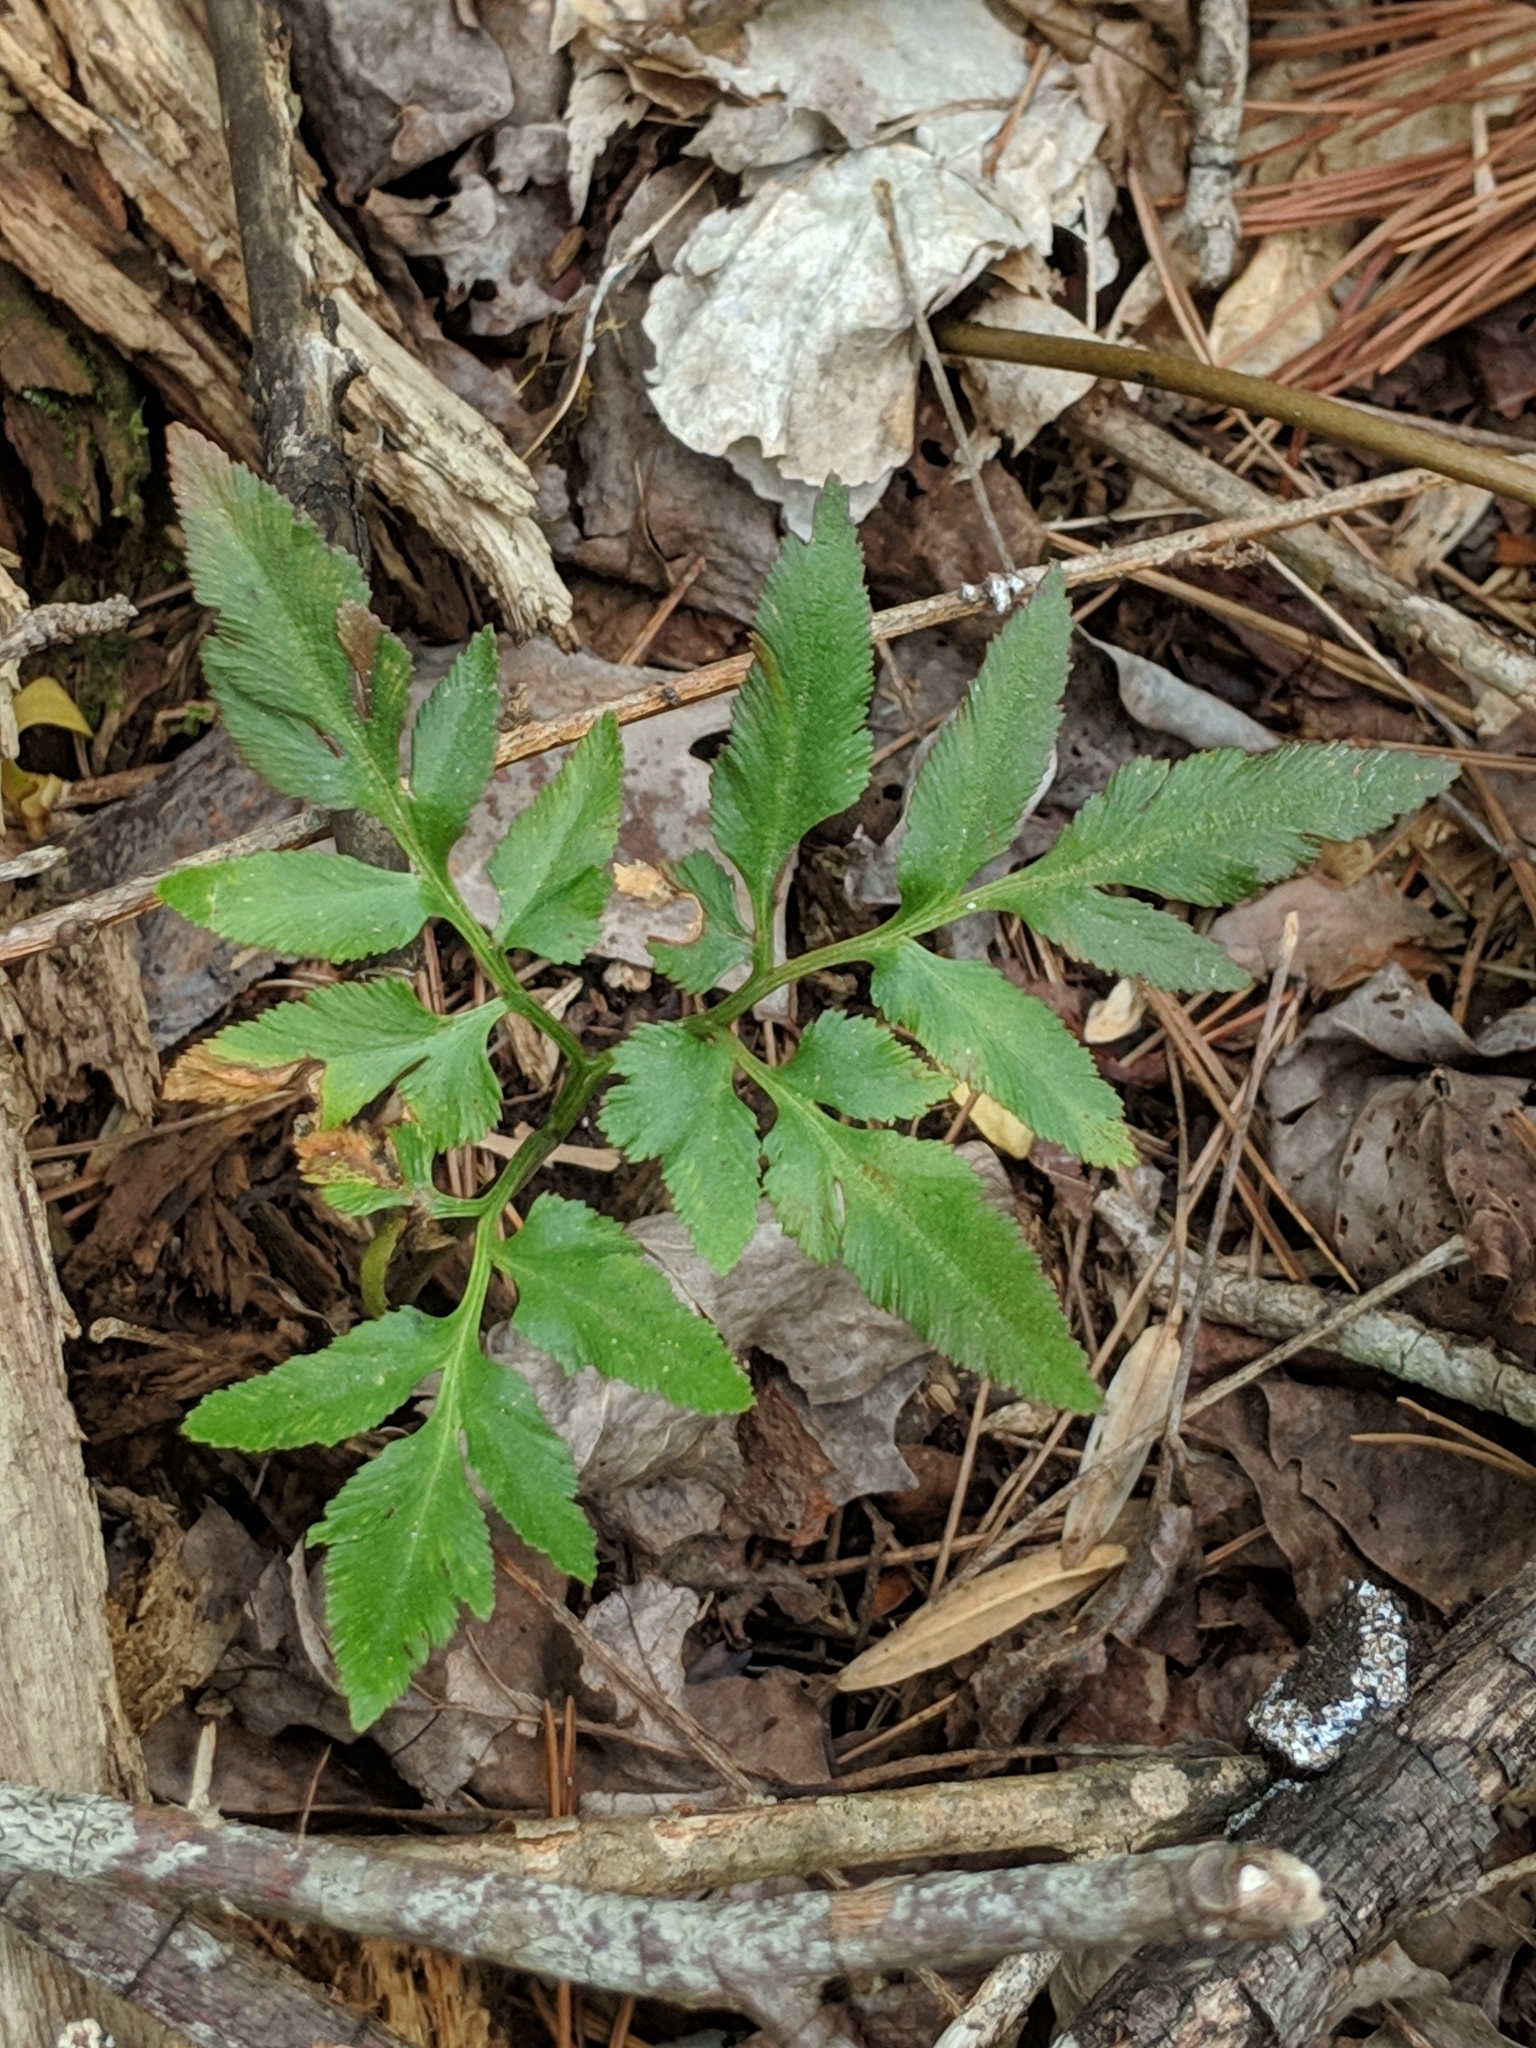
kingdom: Plantae
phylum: Tracheophyta
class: Polypodiopsida
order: Ophioglossales
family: Ophioglossaceae
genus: Sceptridium
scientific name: Sceptridium dissectum
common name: Cut-leaved grapefern
